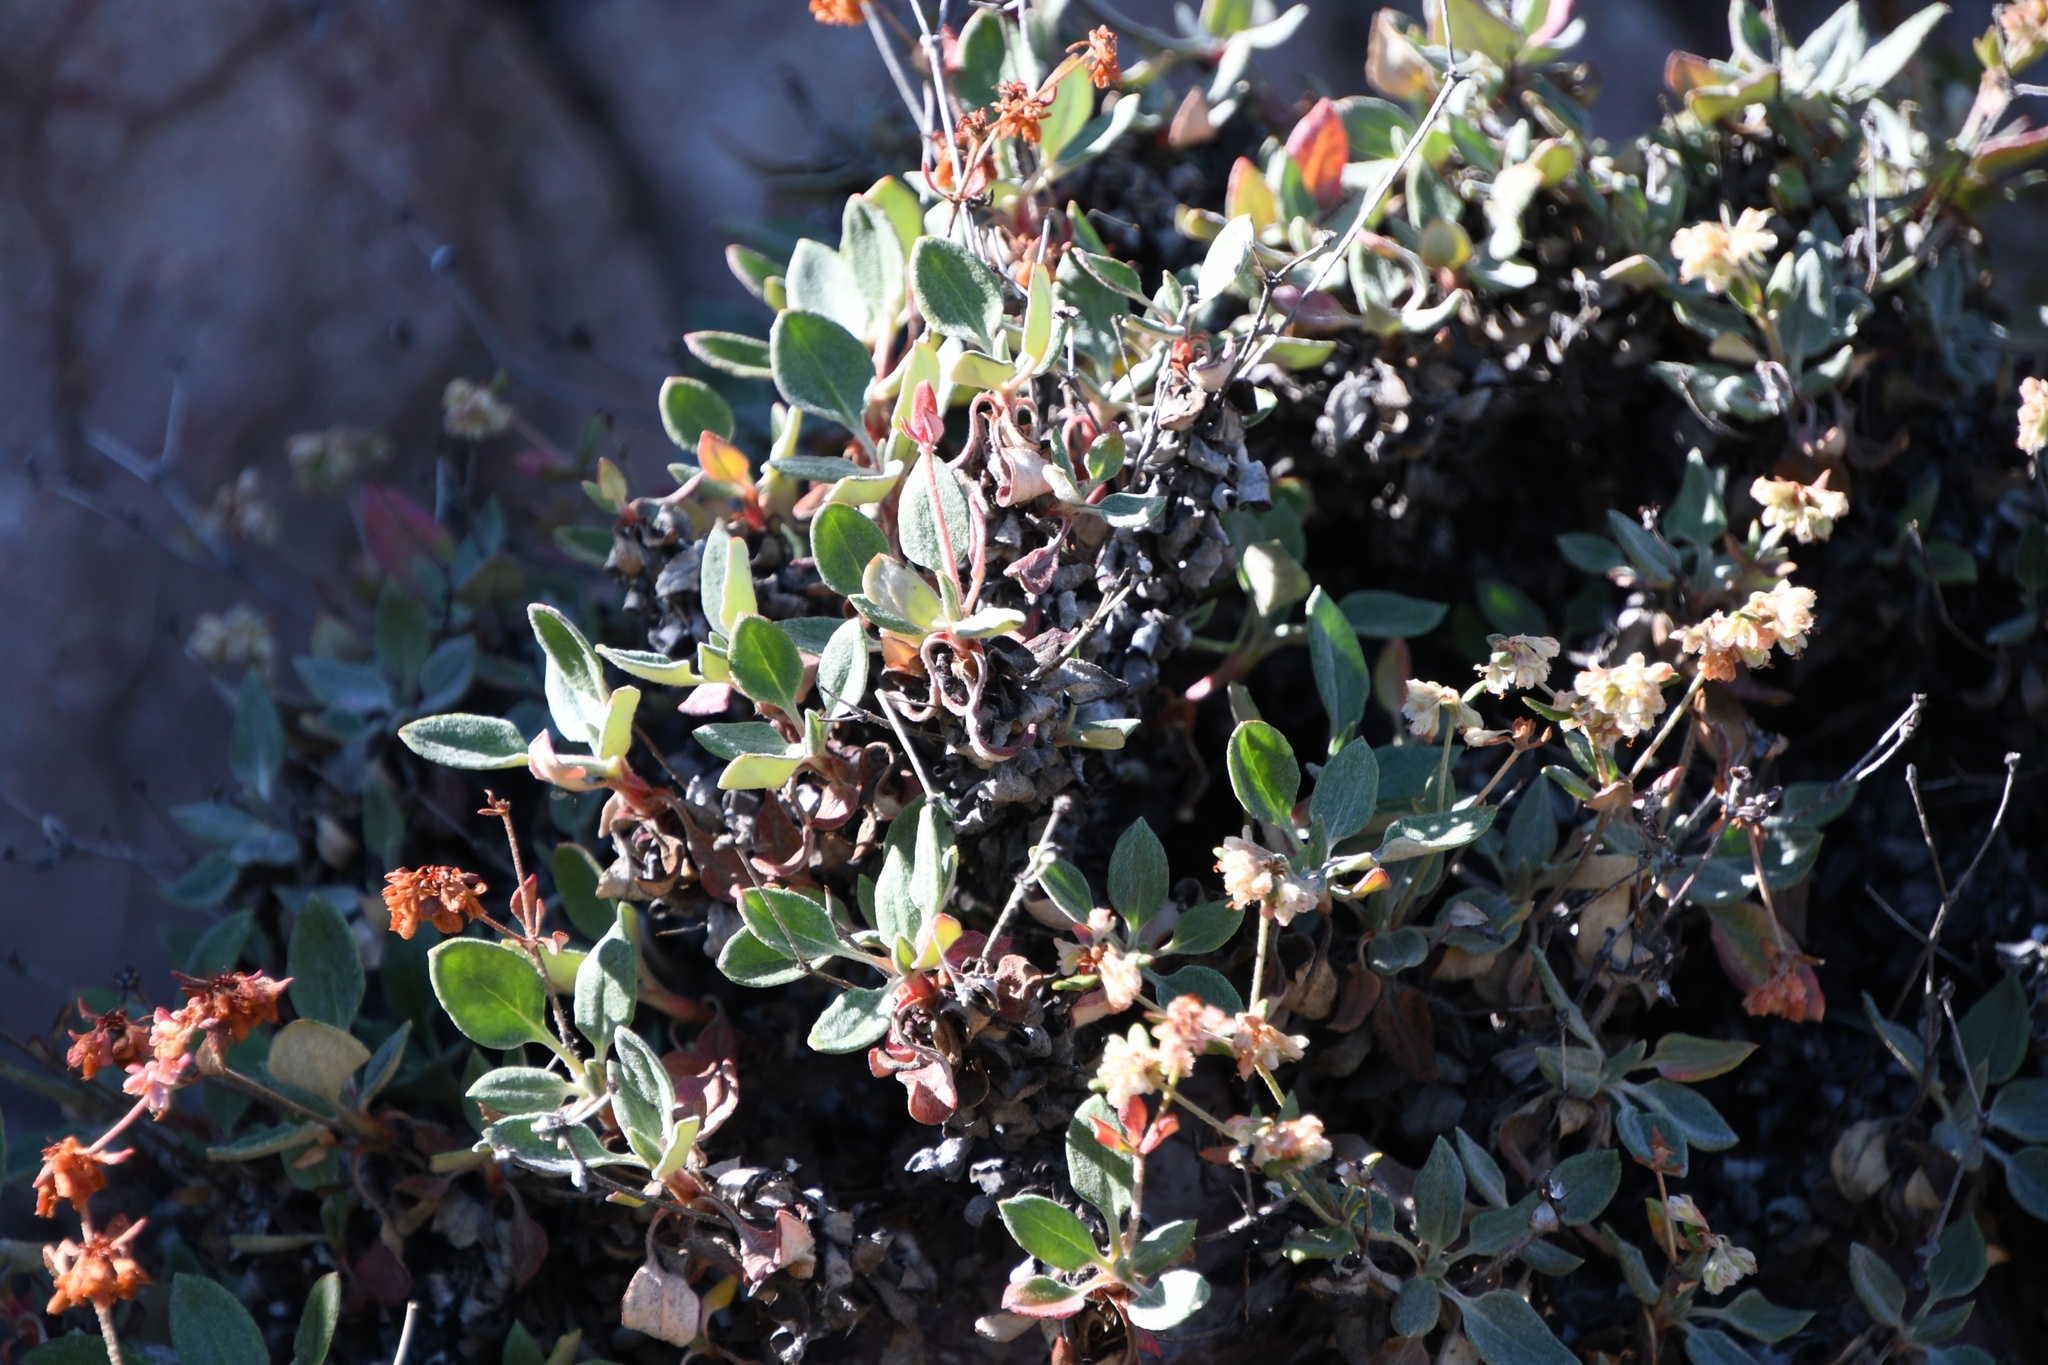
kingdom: Plantae
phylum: Tracheophyta
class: Magnoliopsida
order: Caryophyllales
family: Polygonaceae
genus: Eriogonum
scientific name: Eriogonum jamesii
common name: Antelope-sage
